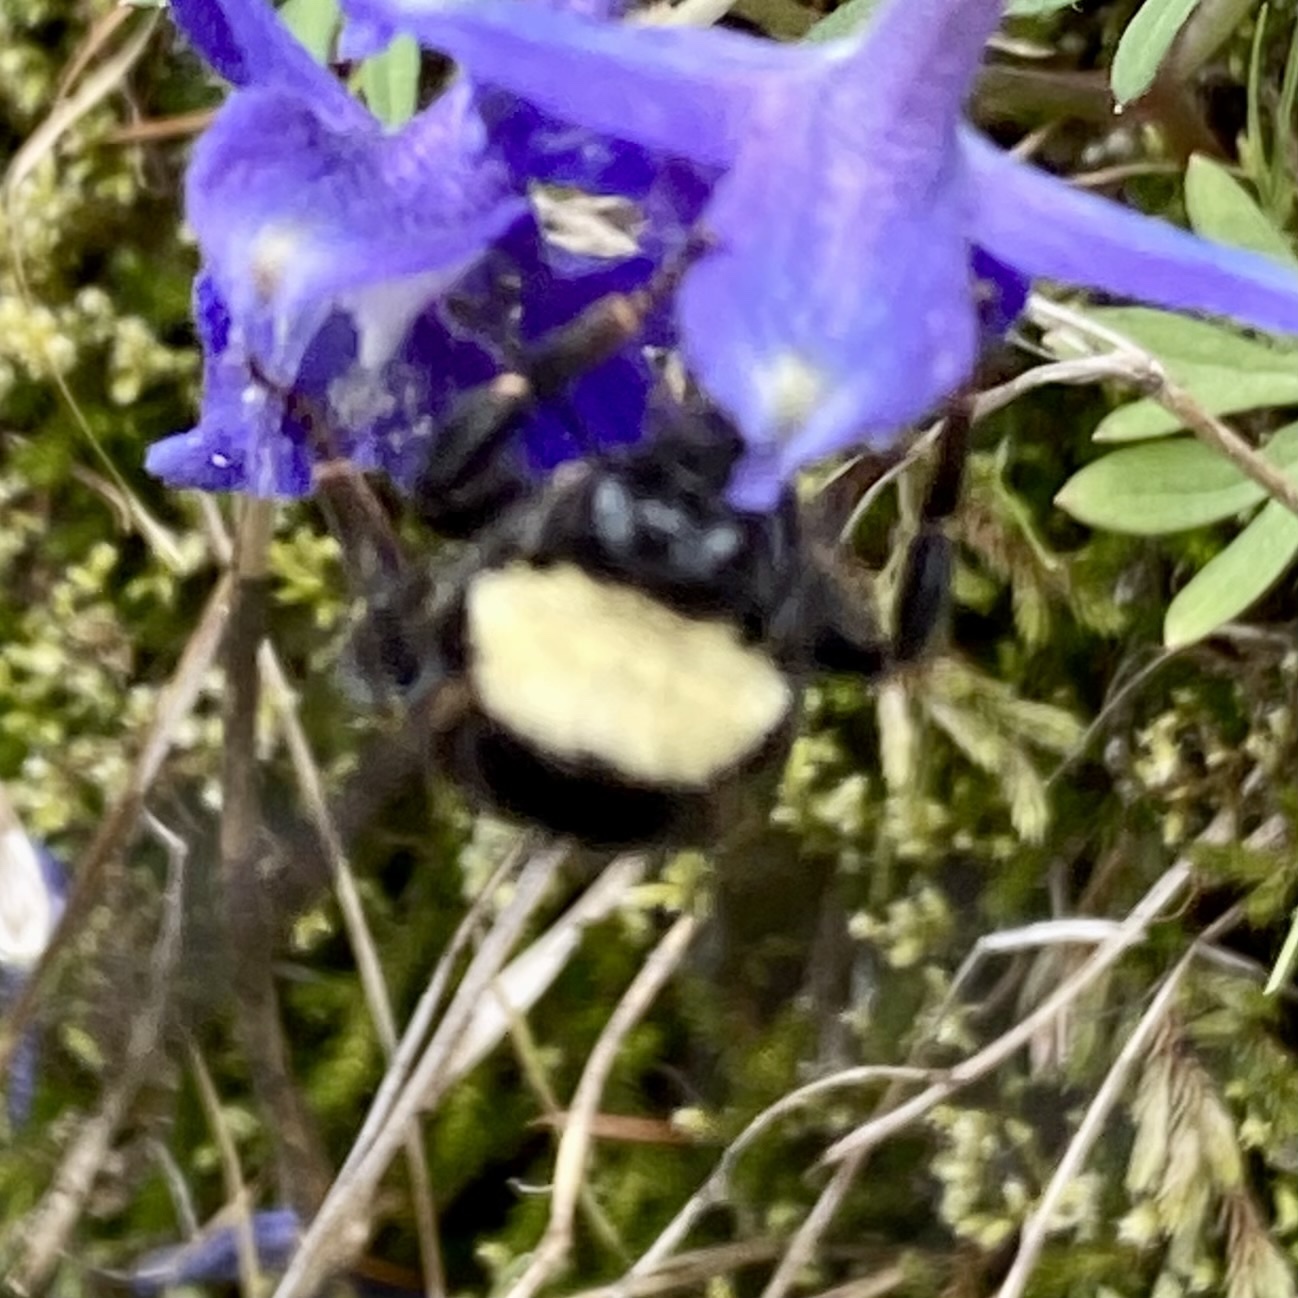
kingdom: Animalia
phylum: Arthropoda
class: Insecta
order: Hymenoptera
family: Apidae
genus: Bombus
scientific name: Bombus californicus
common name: California bumble bee
